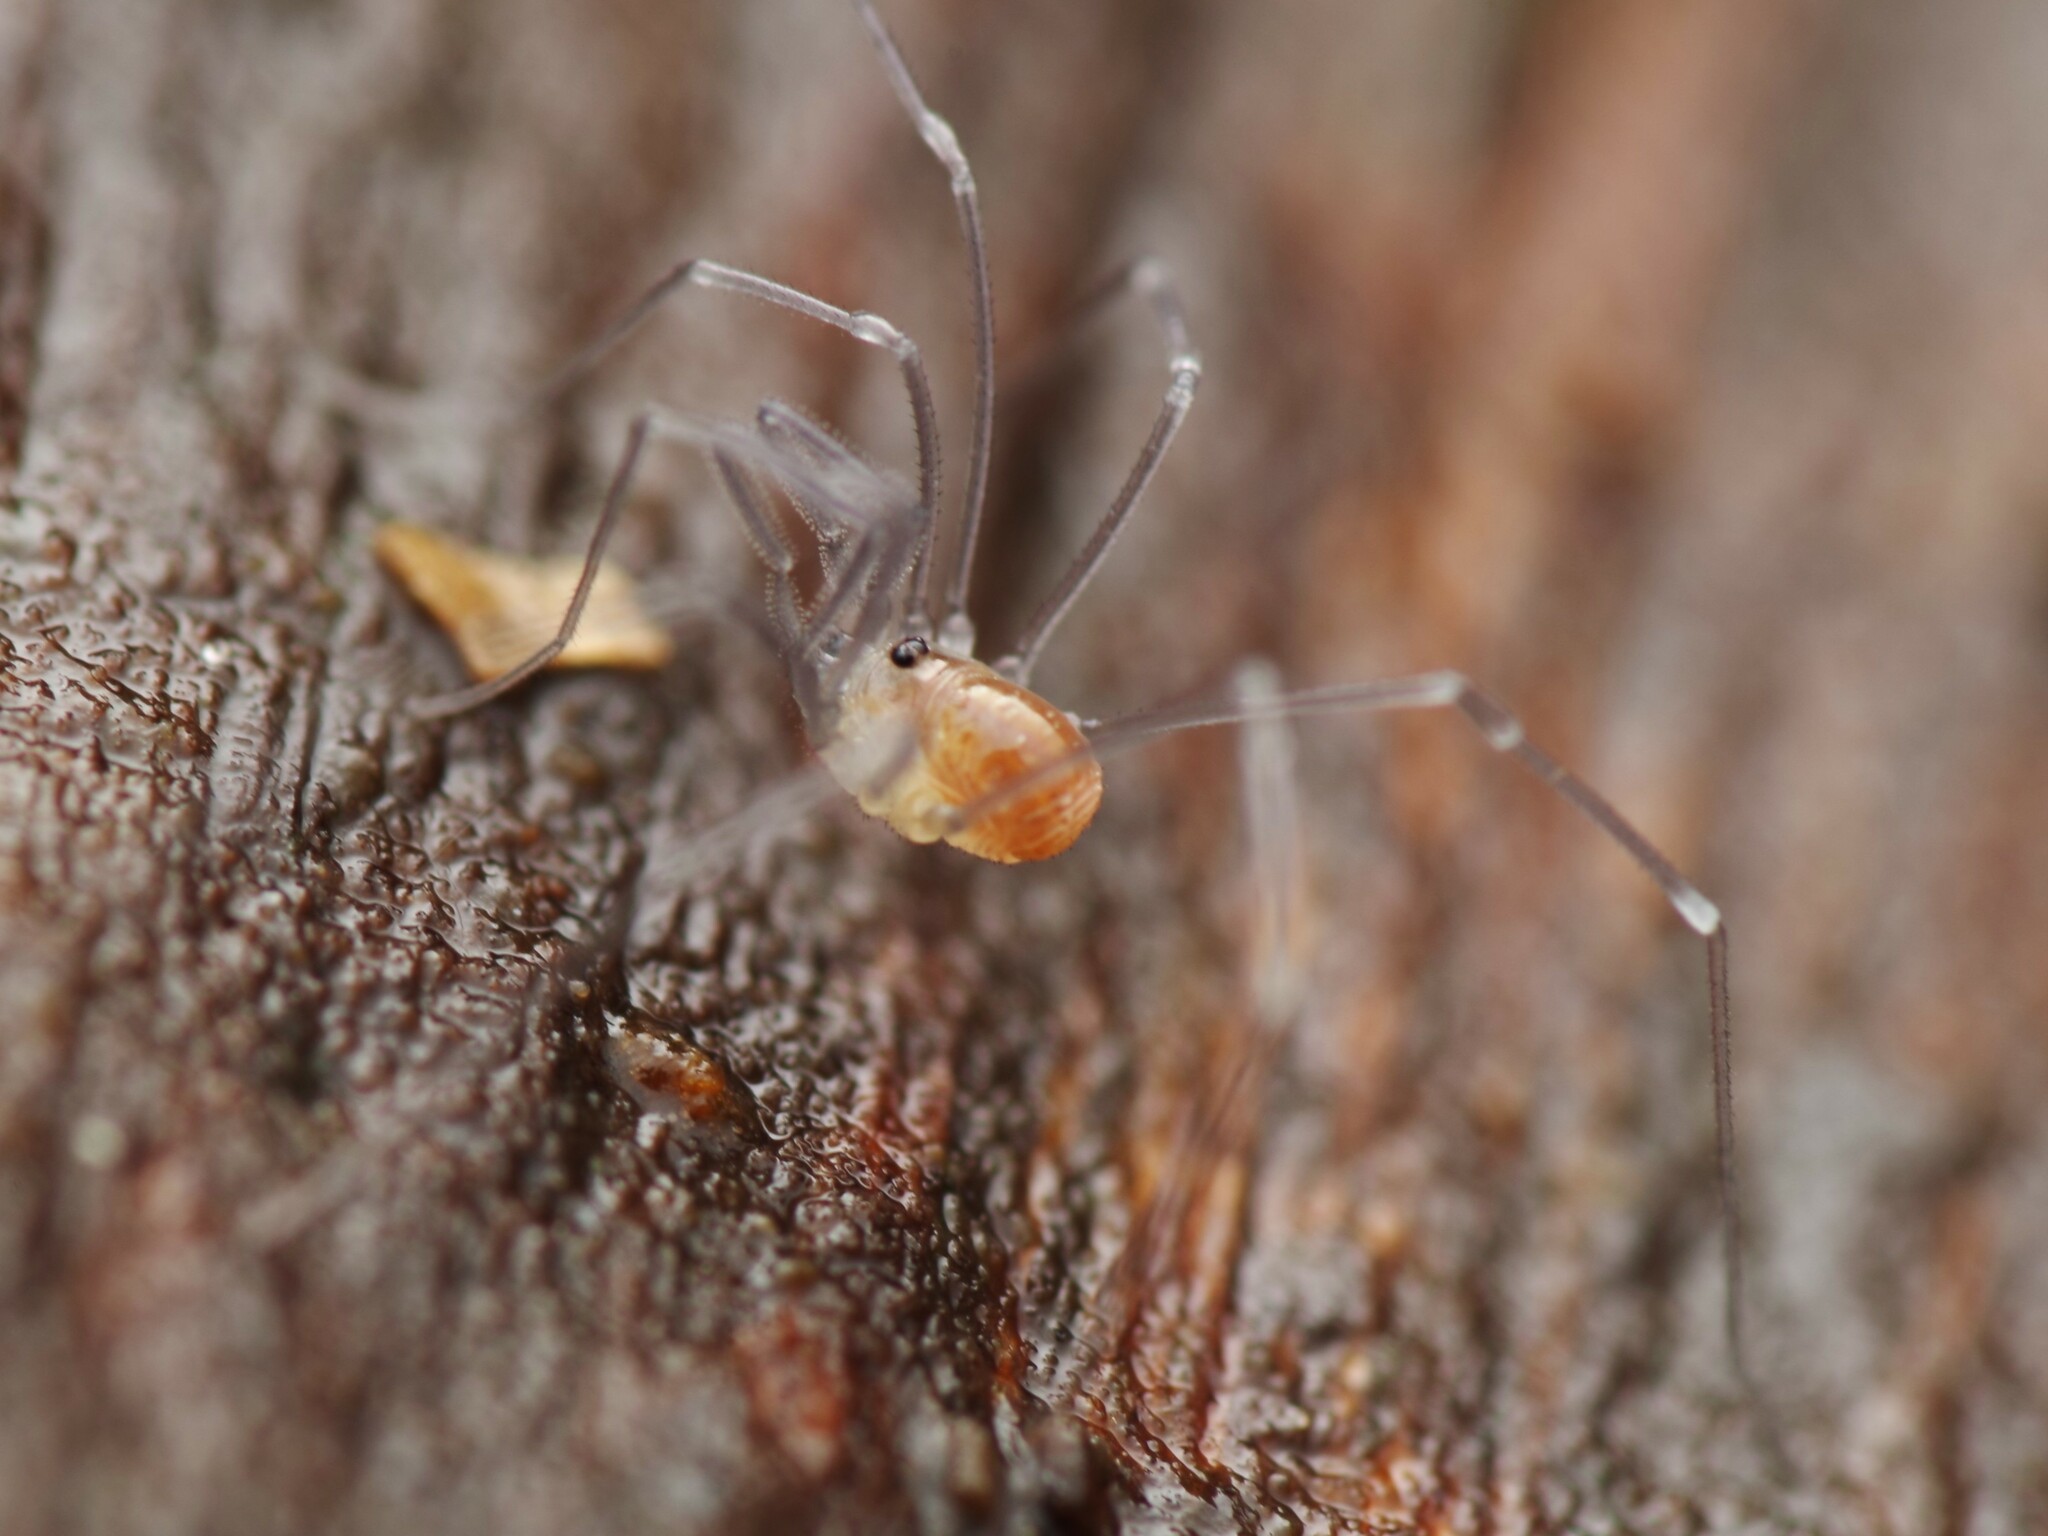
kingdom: Animalia
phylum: Arthropoda
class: Arachnida
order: Opiliones
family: Nemastomatidae
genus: Mitostoma
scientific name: Mitostoma chrysomelas
